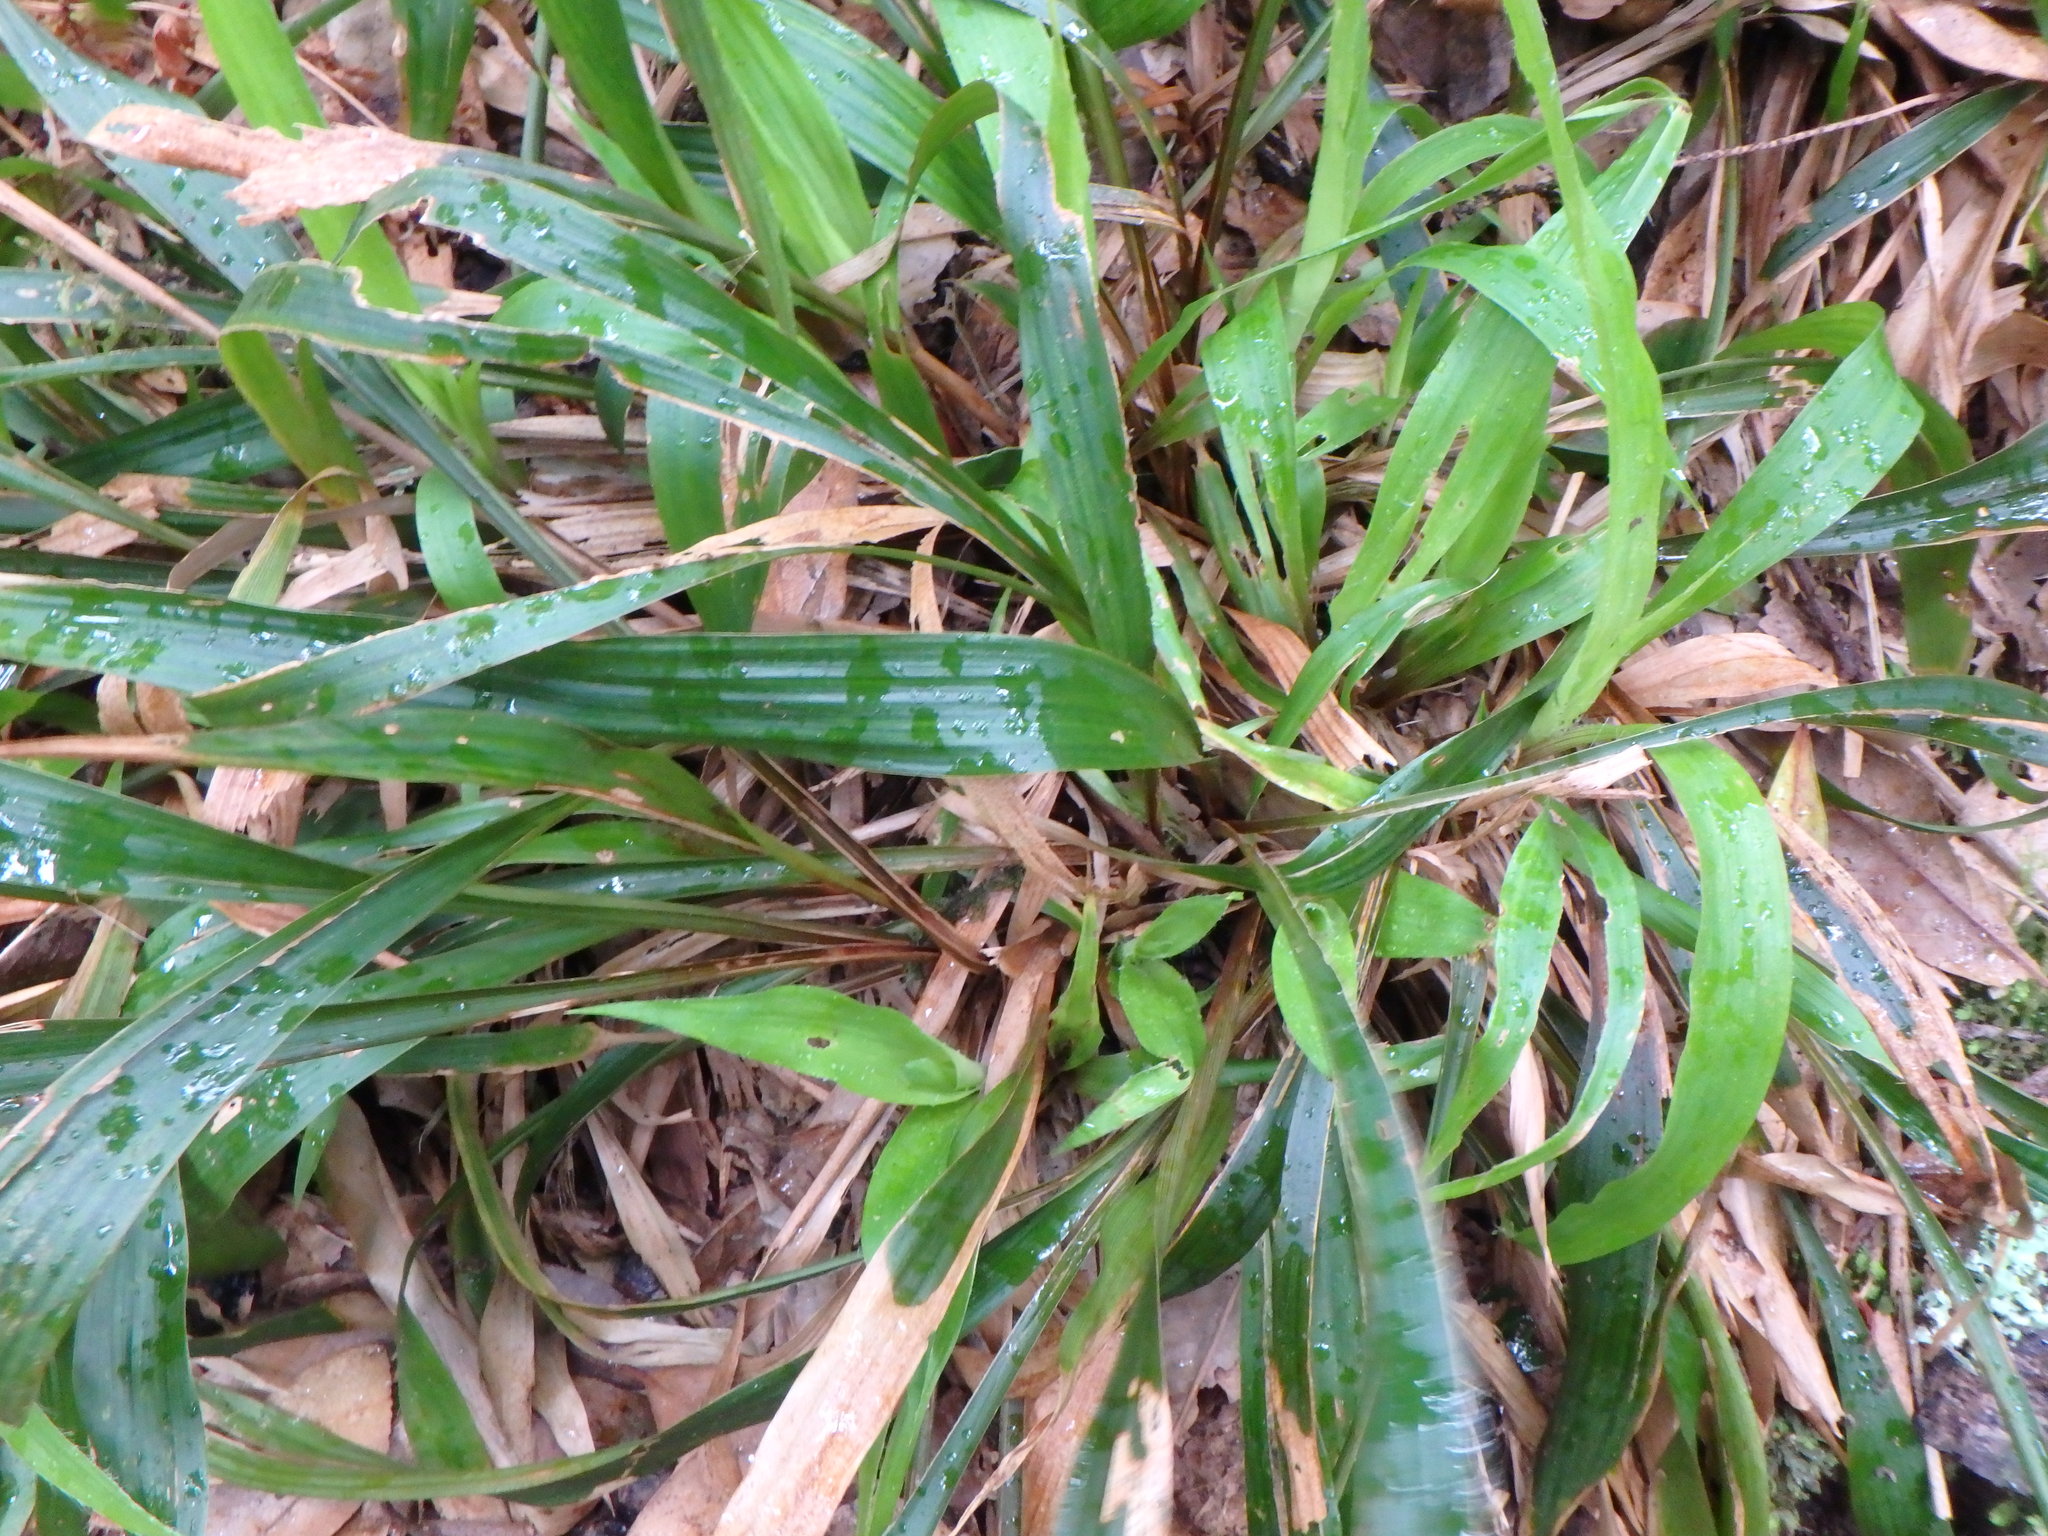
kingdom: Plantae
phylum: Tracheophyta
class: Liliopsida
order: Poales
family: Juncaceae
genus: Luzula
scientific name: Luzula canariensis
